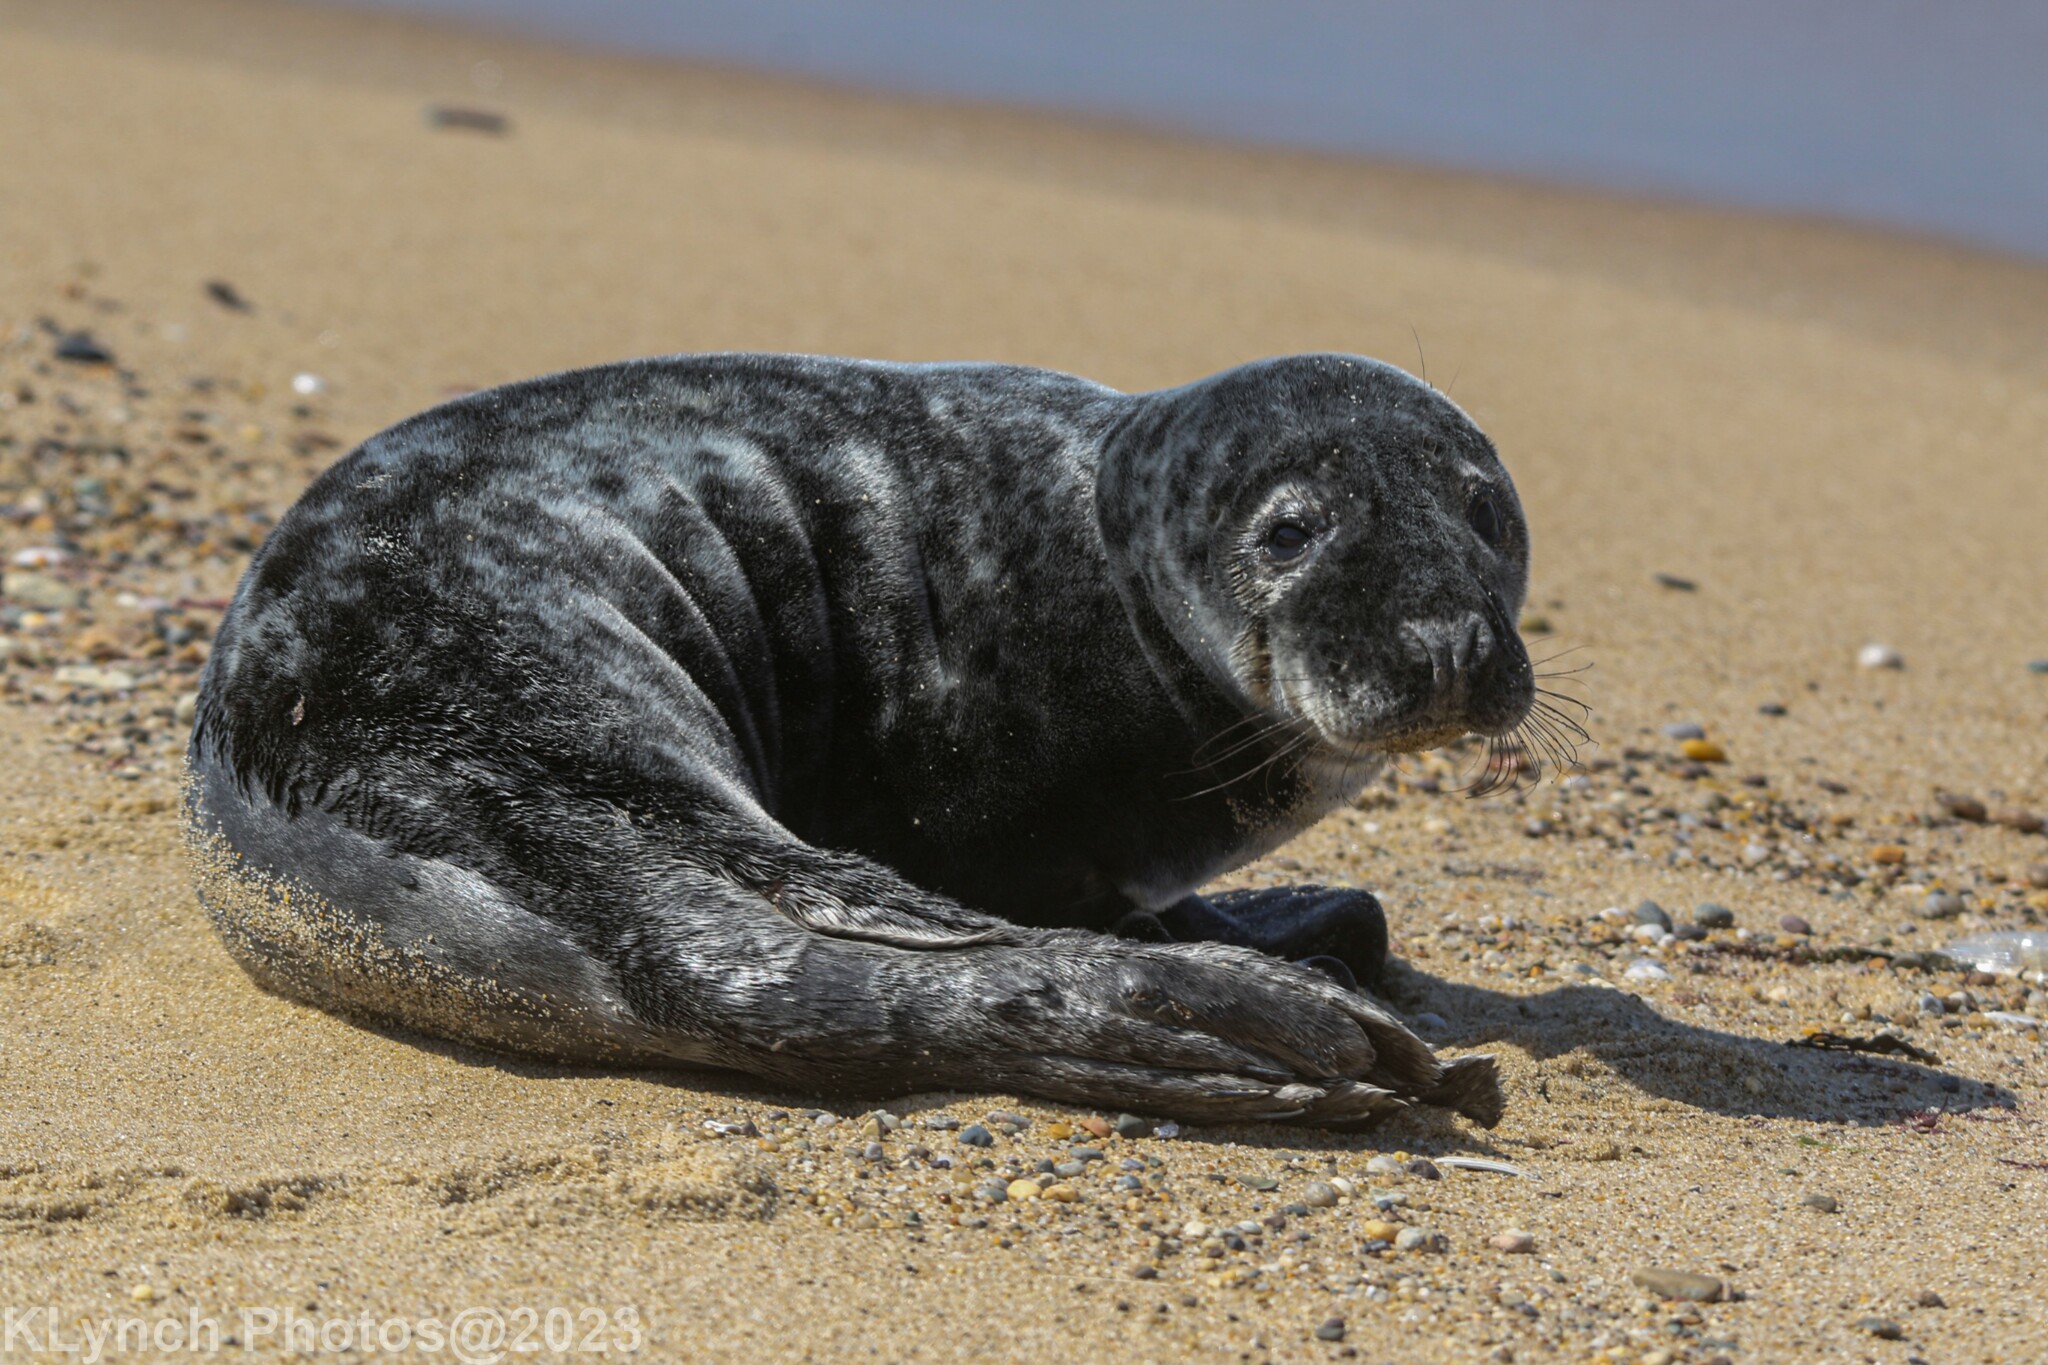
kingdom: Animalia
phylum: Chordata
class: Mammalia
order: Carnivora
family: Phocidae
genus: Halichoerus
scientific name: Halichoerus grypus
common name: Grey seal
